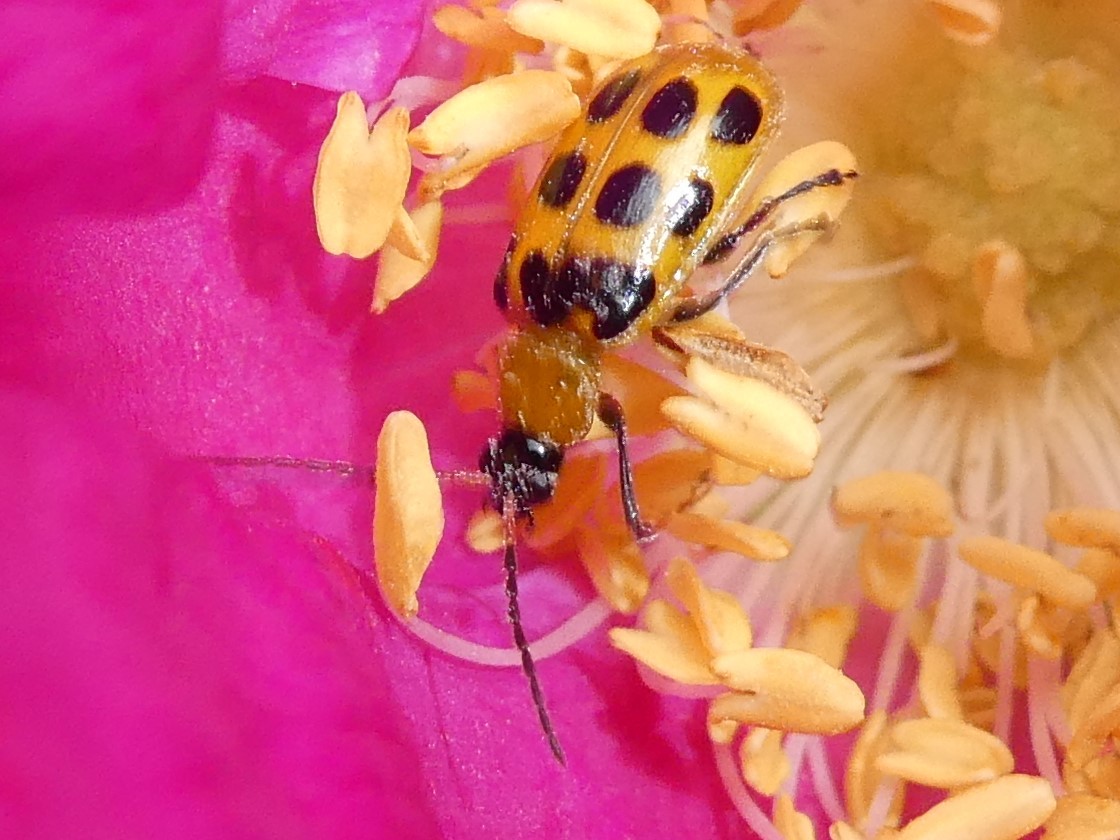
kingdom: Animalia
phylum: Arthropoda
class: Insecta
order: Coleoptera
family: Chrysomelidae
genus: Diabrotica
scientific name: Diabrotica undecimpunctata
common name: Spotted cucumber beetle
